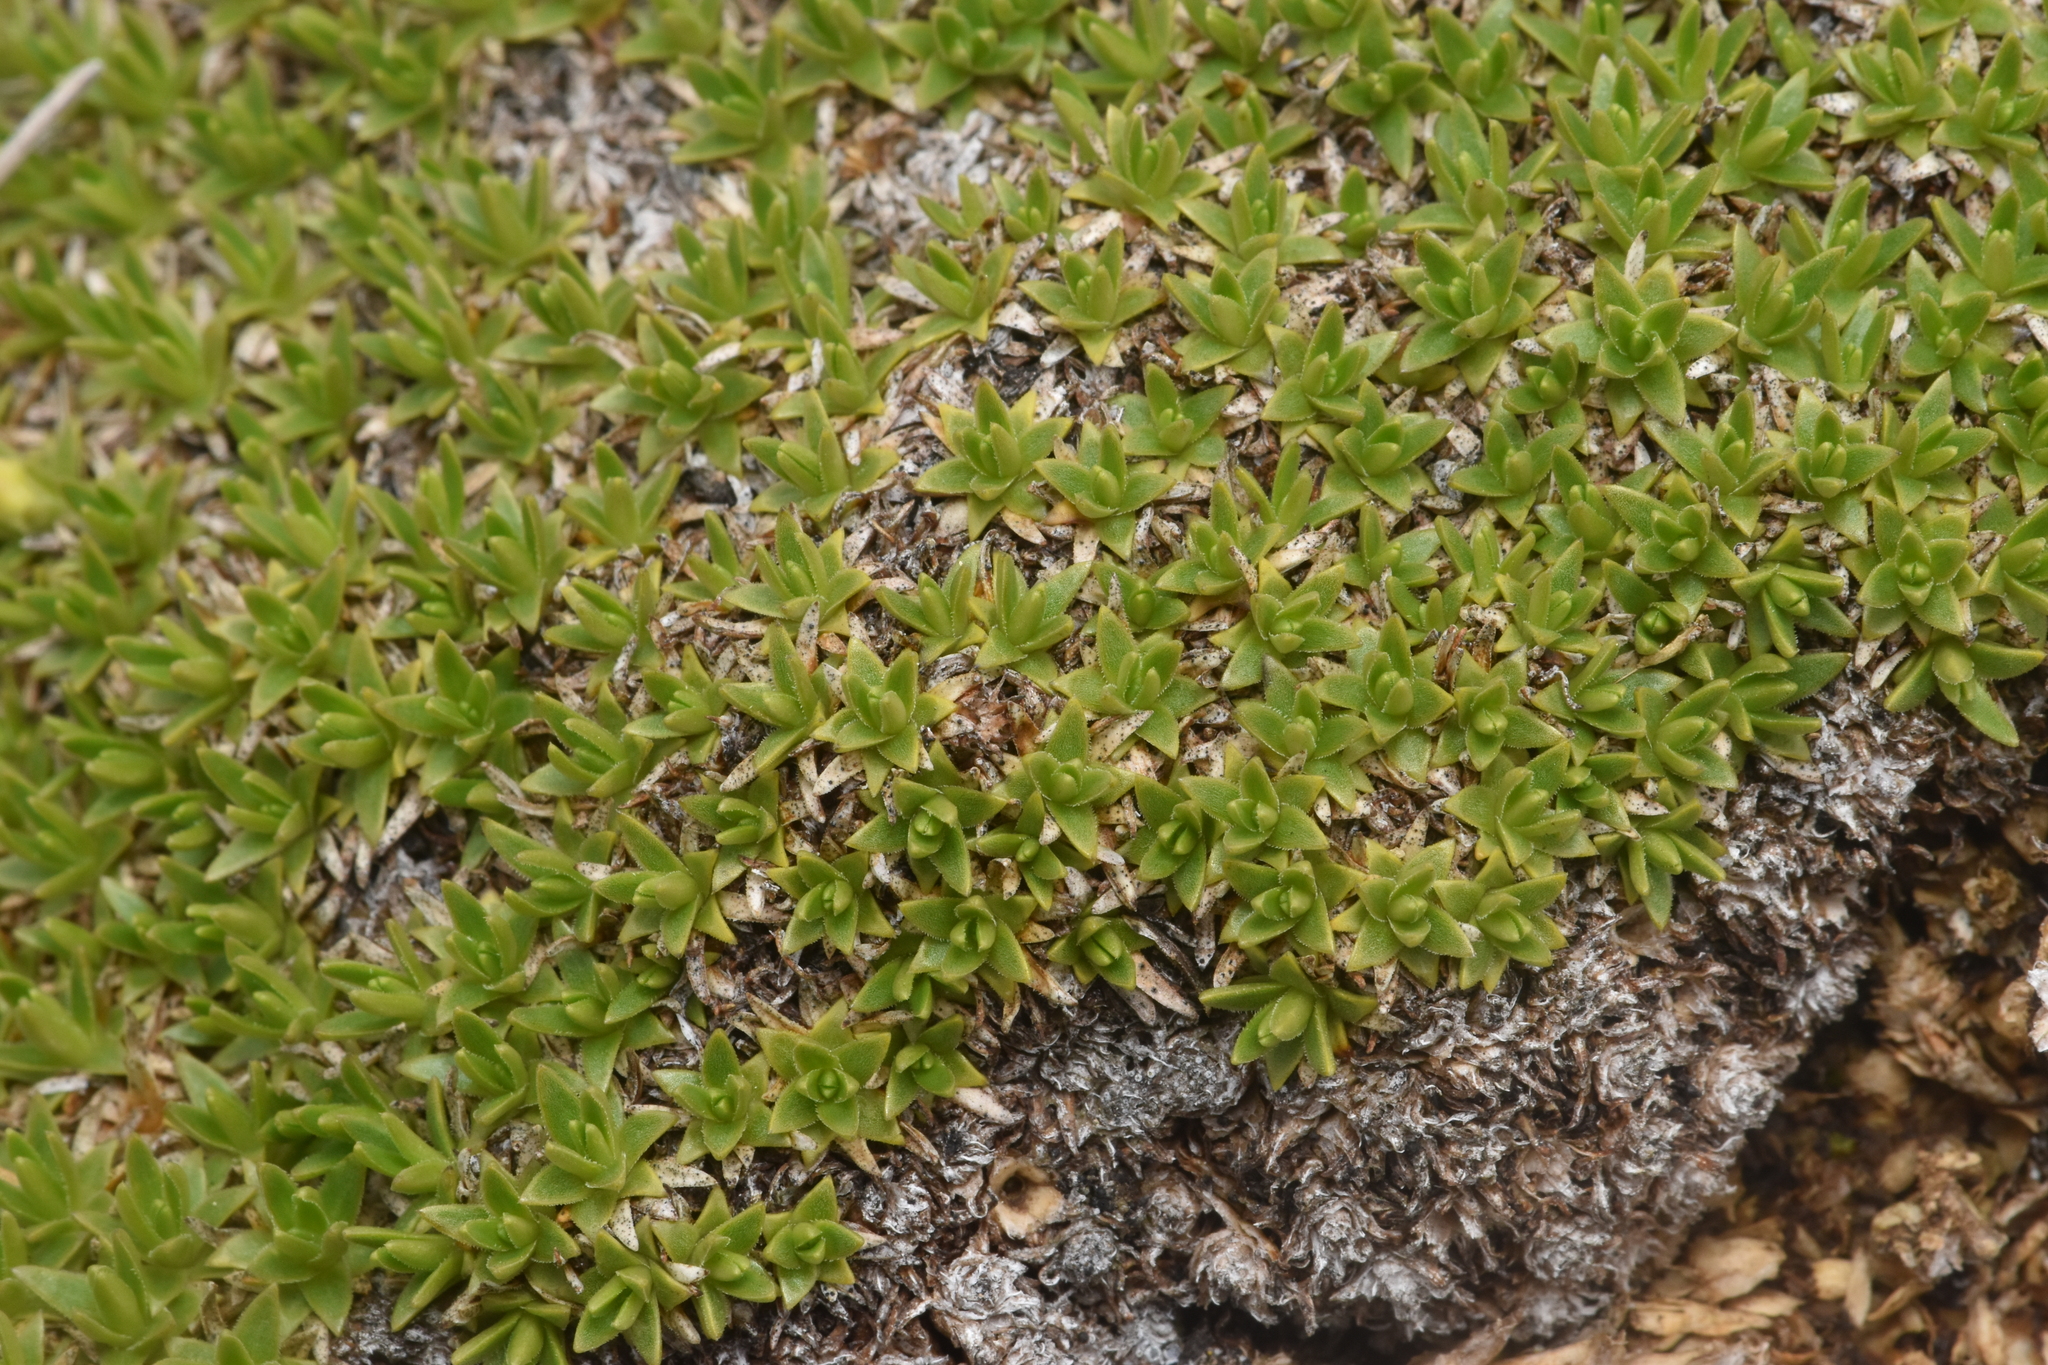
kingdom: Plantae
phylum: Tracheophyta
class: Magnoliopsida
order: Caryophyllales
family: Caryophyllaceae
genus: Silene
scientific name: Silene acaulis
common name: Moss campion
